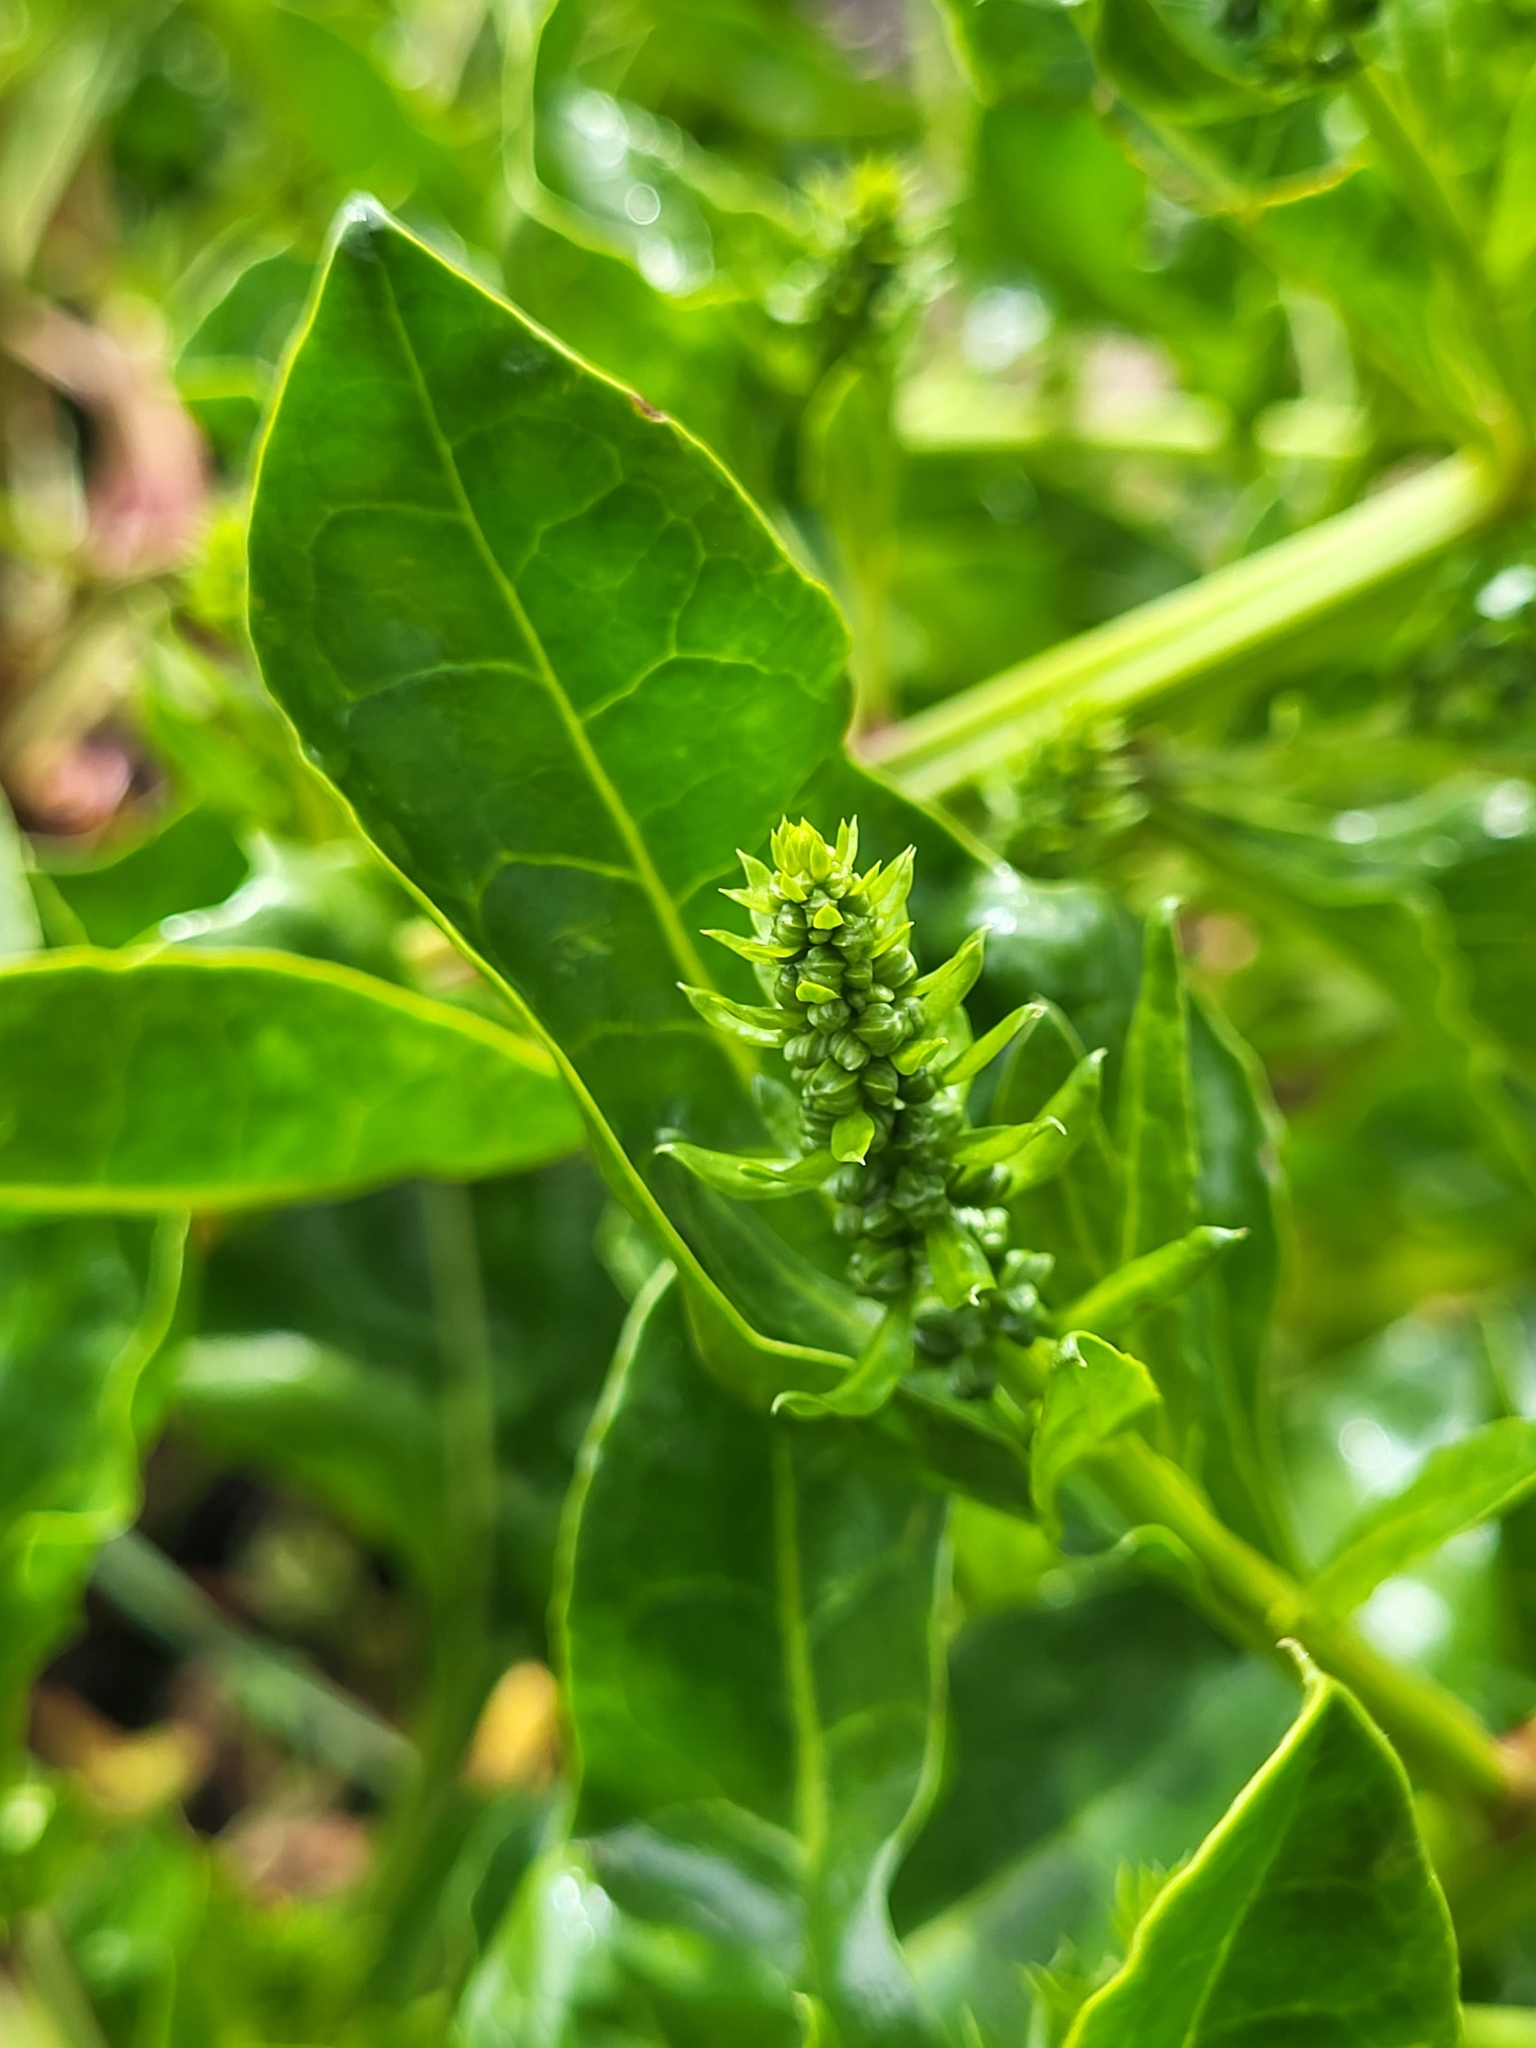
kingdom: Plantae
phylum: Tracheophyta
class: Magnoliopsida
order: Caryophyllales
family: Amaranthaceae
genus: Beta
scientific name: Beta vulgaris
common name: Beet
